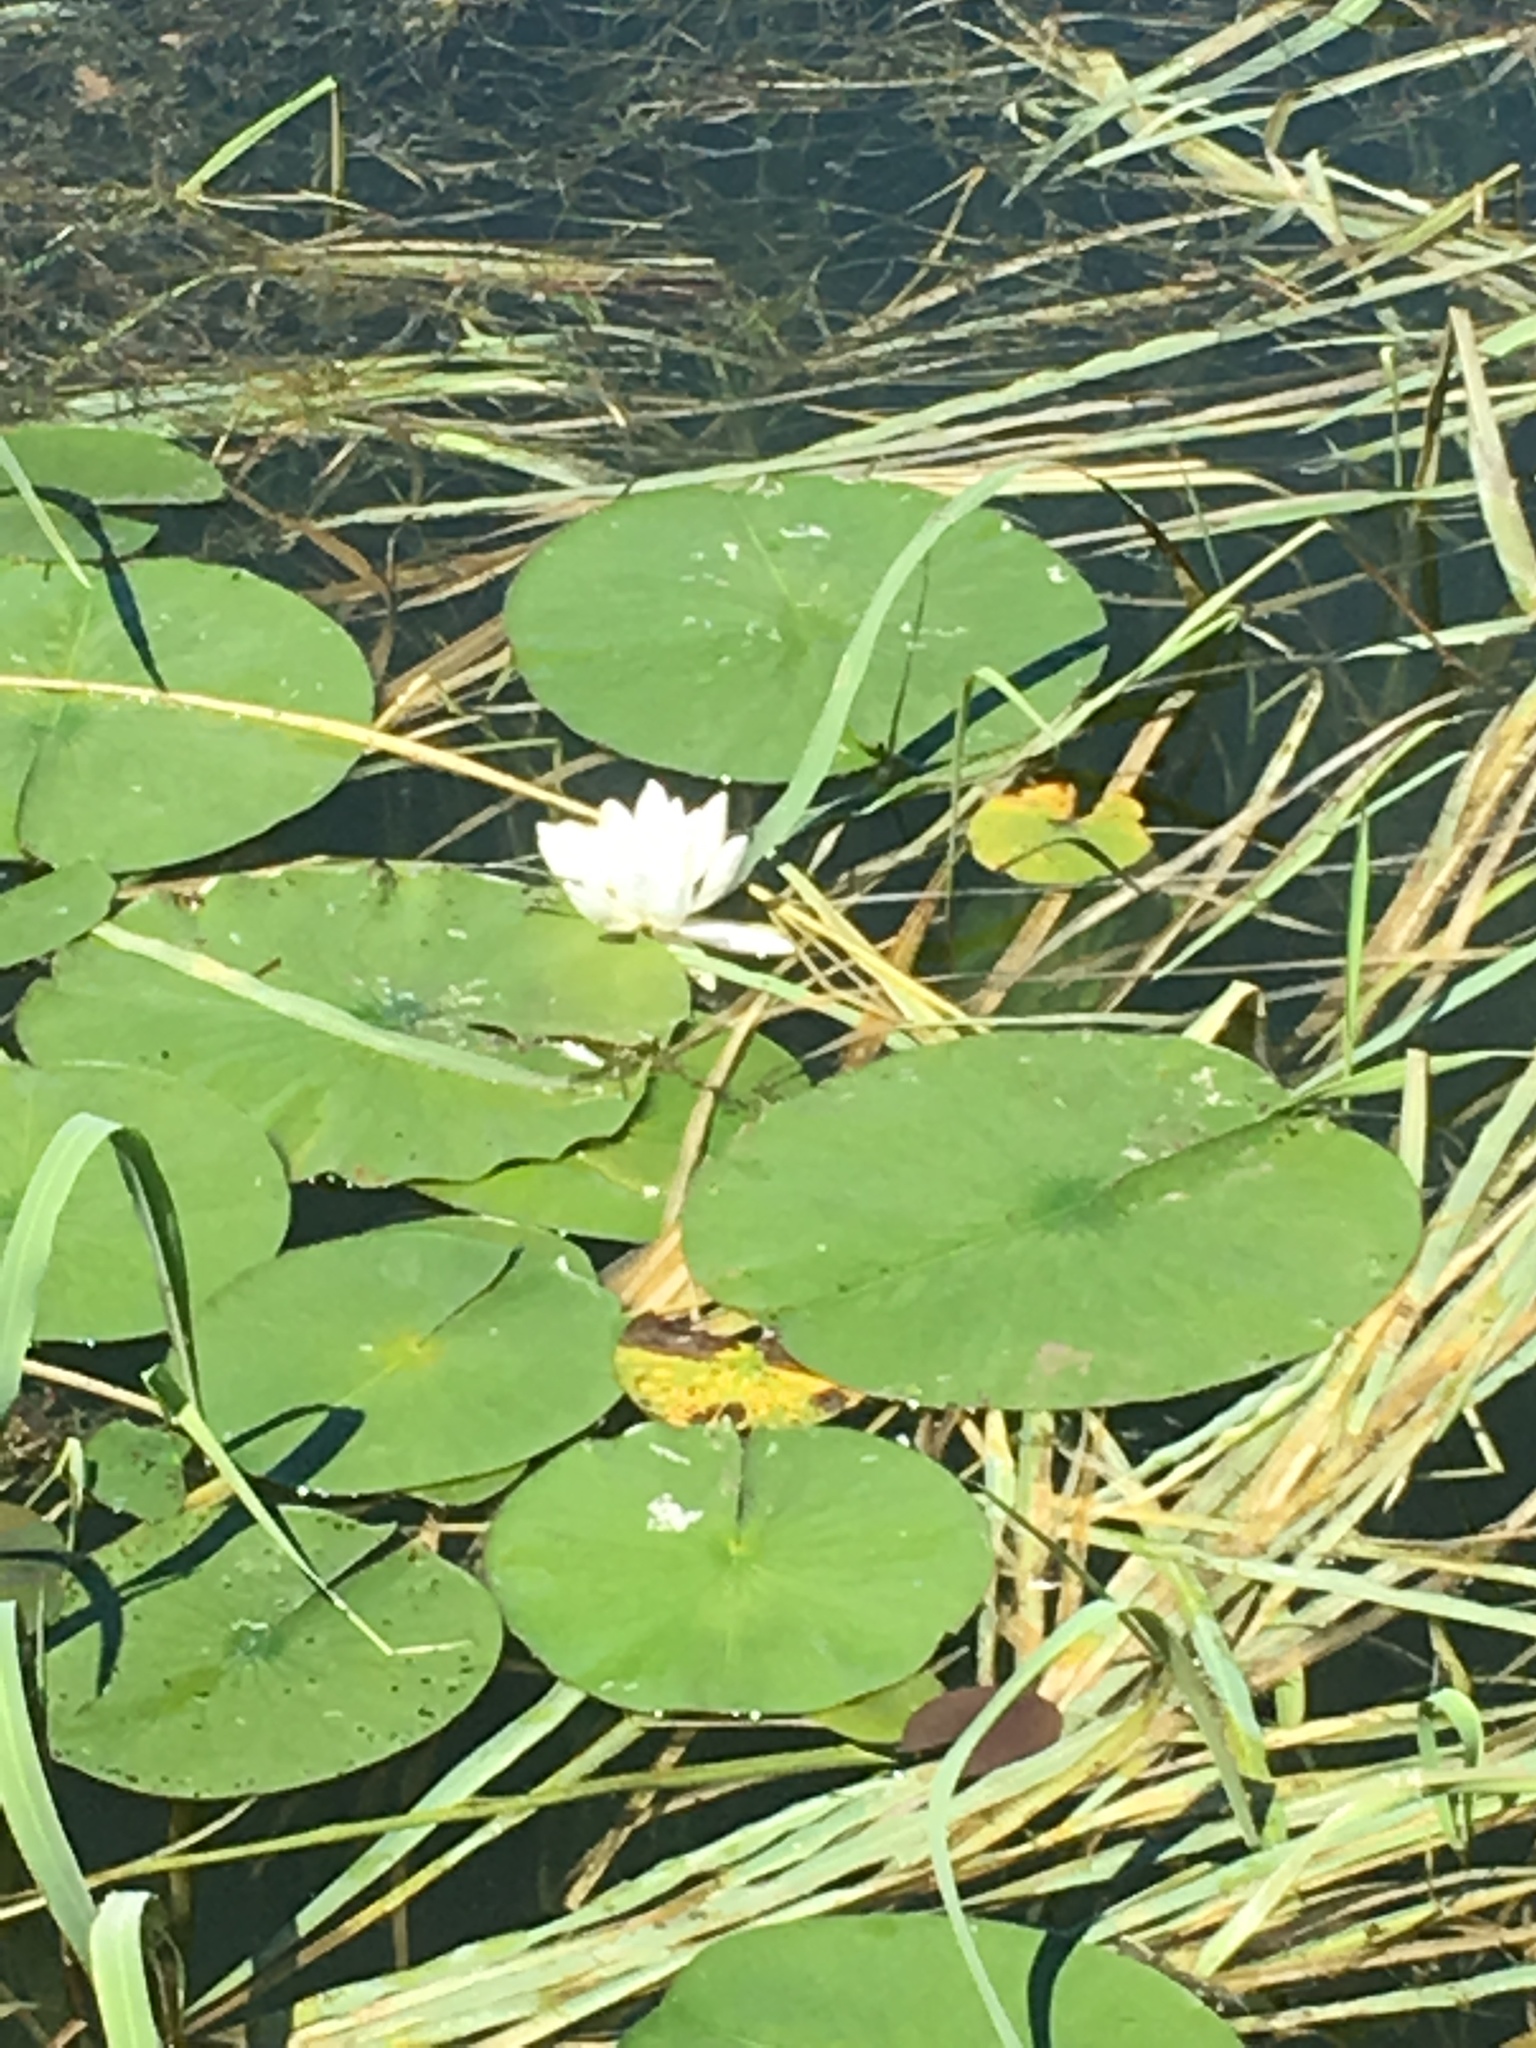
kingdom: Plantae
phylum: Tracheophyta
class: Magnoliopsida
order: Nymphaeales
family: Nymphaeaceae
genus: Nymphaea
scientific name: Nymphaea odorata
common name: Fragrant water-lily
